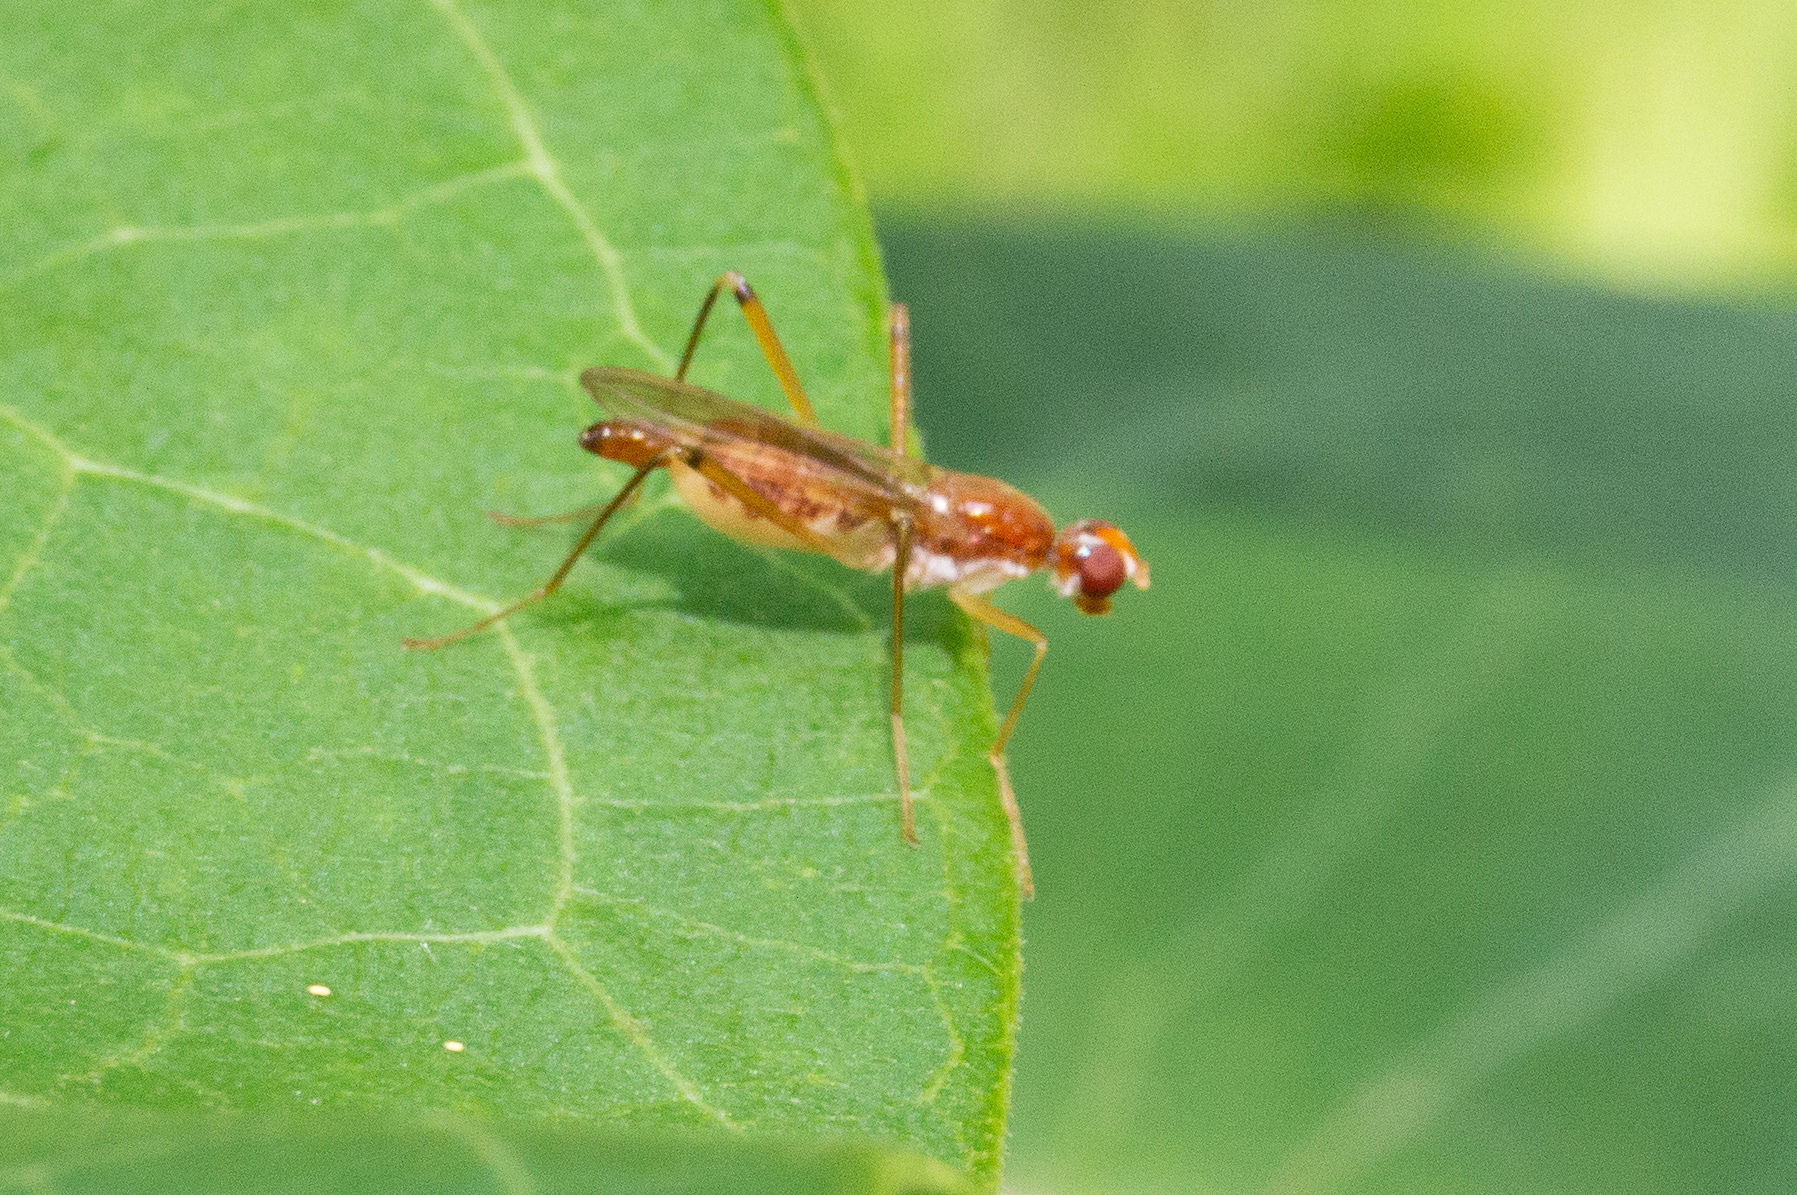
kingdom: Animalia
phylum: Arthropoda
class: Insecta
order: Diptera
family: Micropezidae
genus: Compsobata
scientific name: Compsobata univitta
